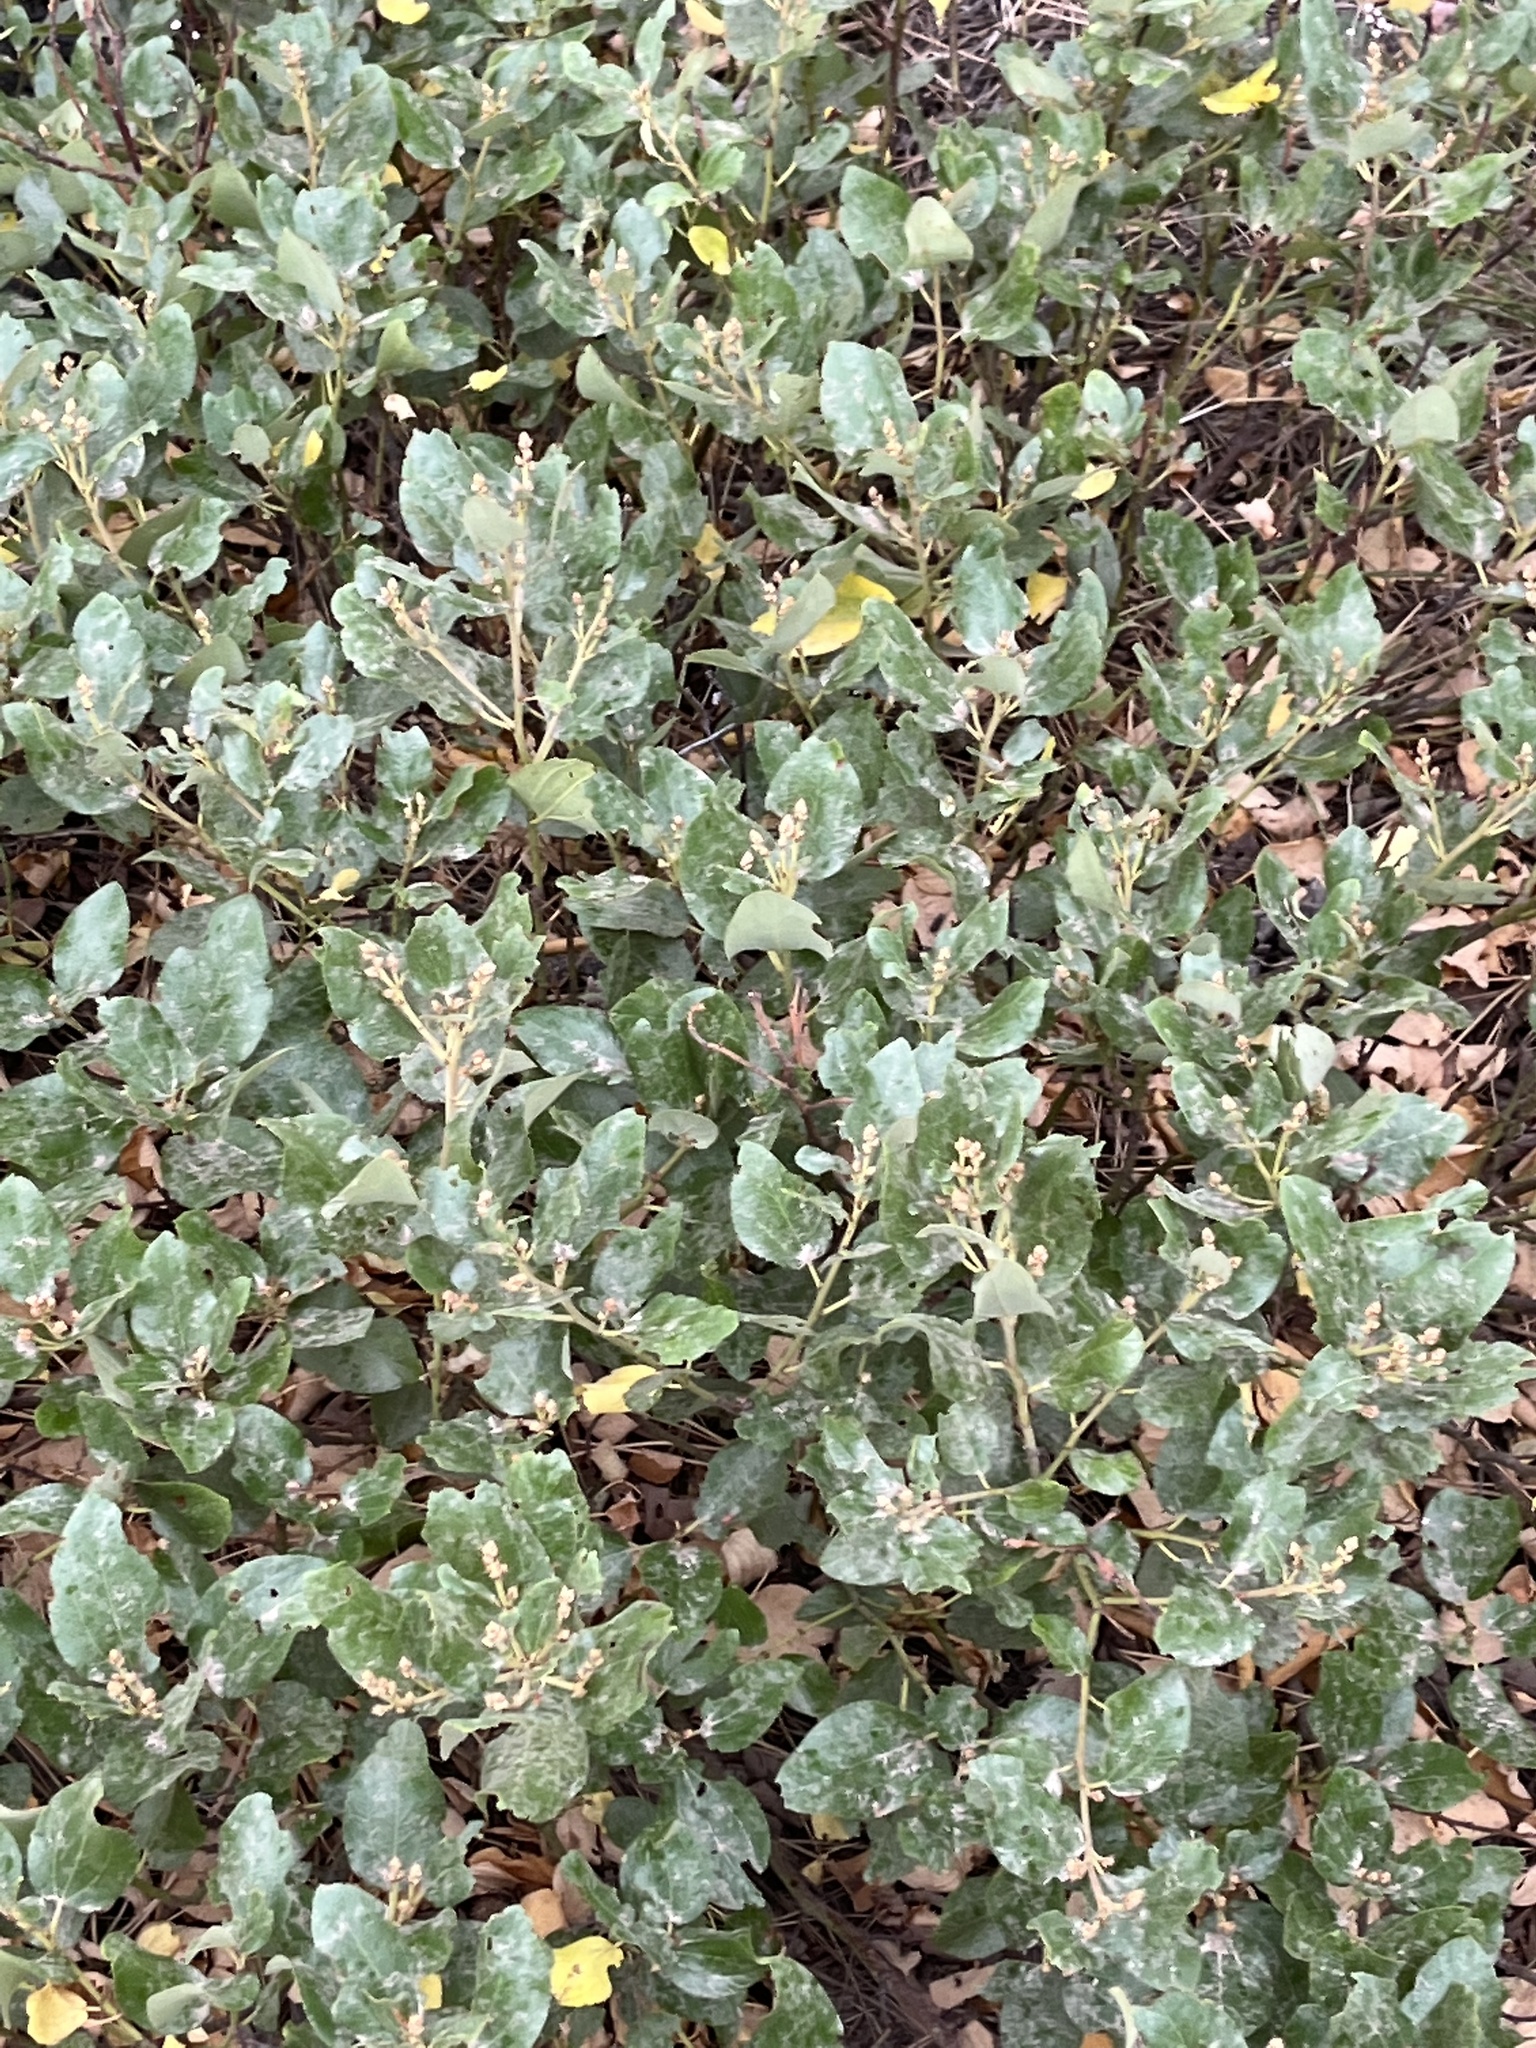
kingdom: Plantae
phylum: Tracheophyta
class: Magnoliopsida
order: Rosales
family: Rhamnaceae
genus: Ceanothus
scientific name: Ceanothus velutinus
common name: Snowbrush
